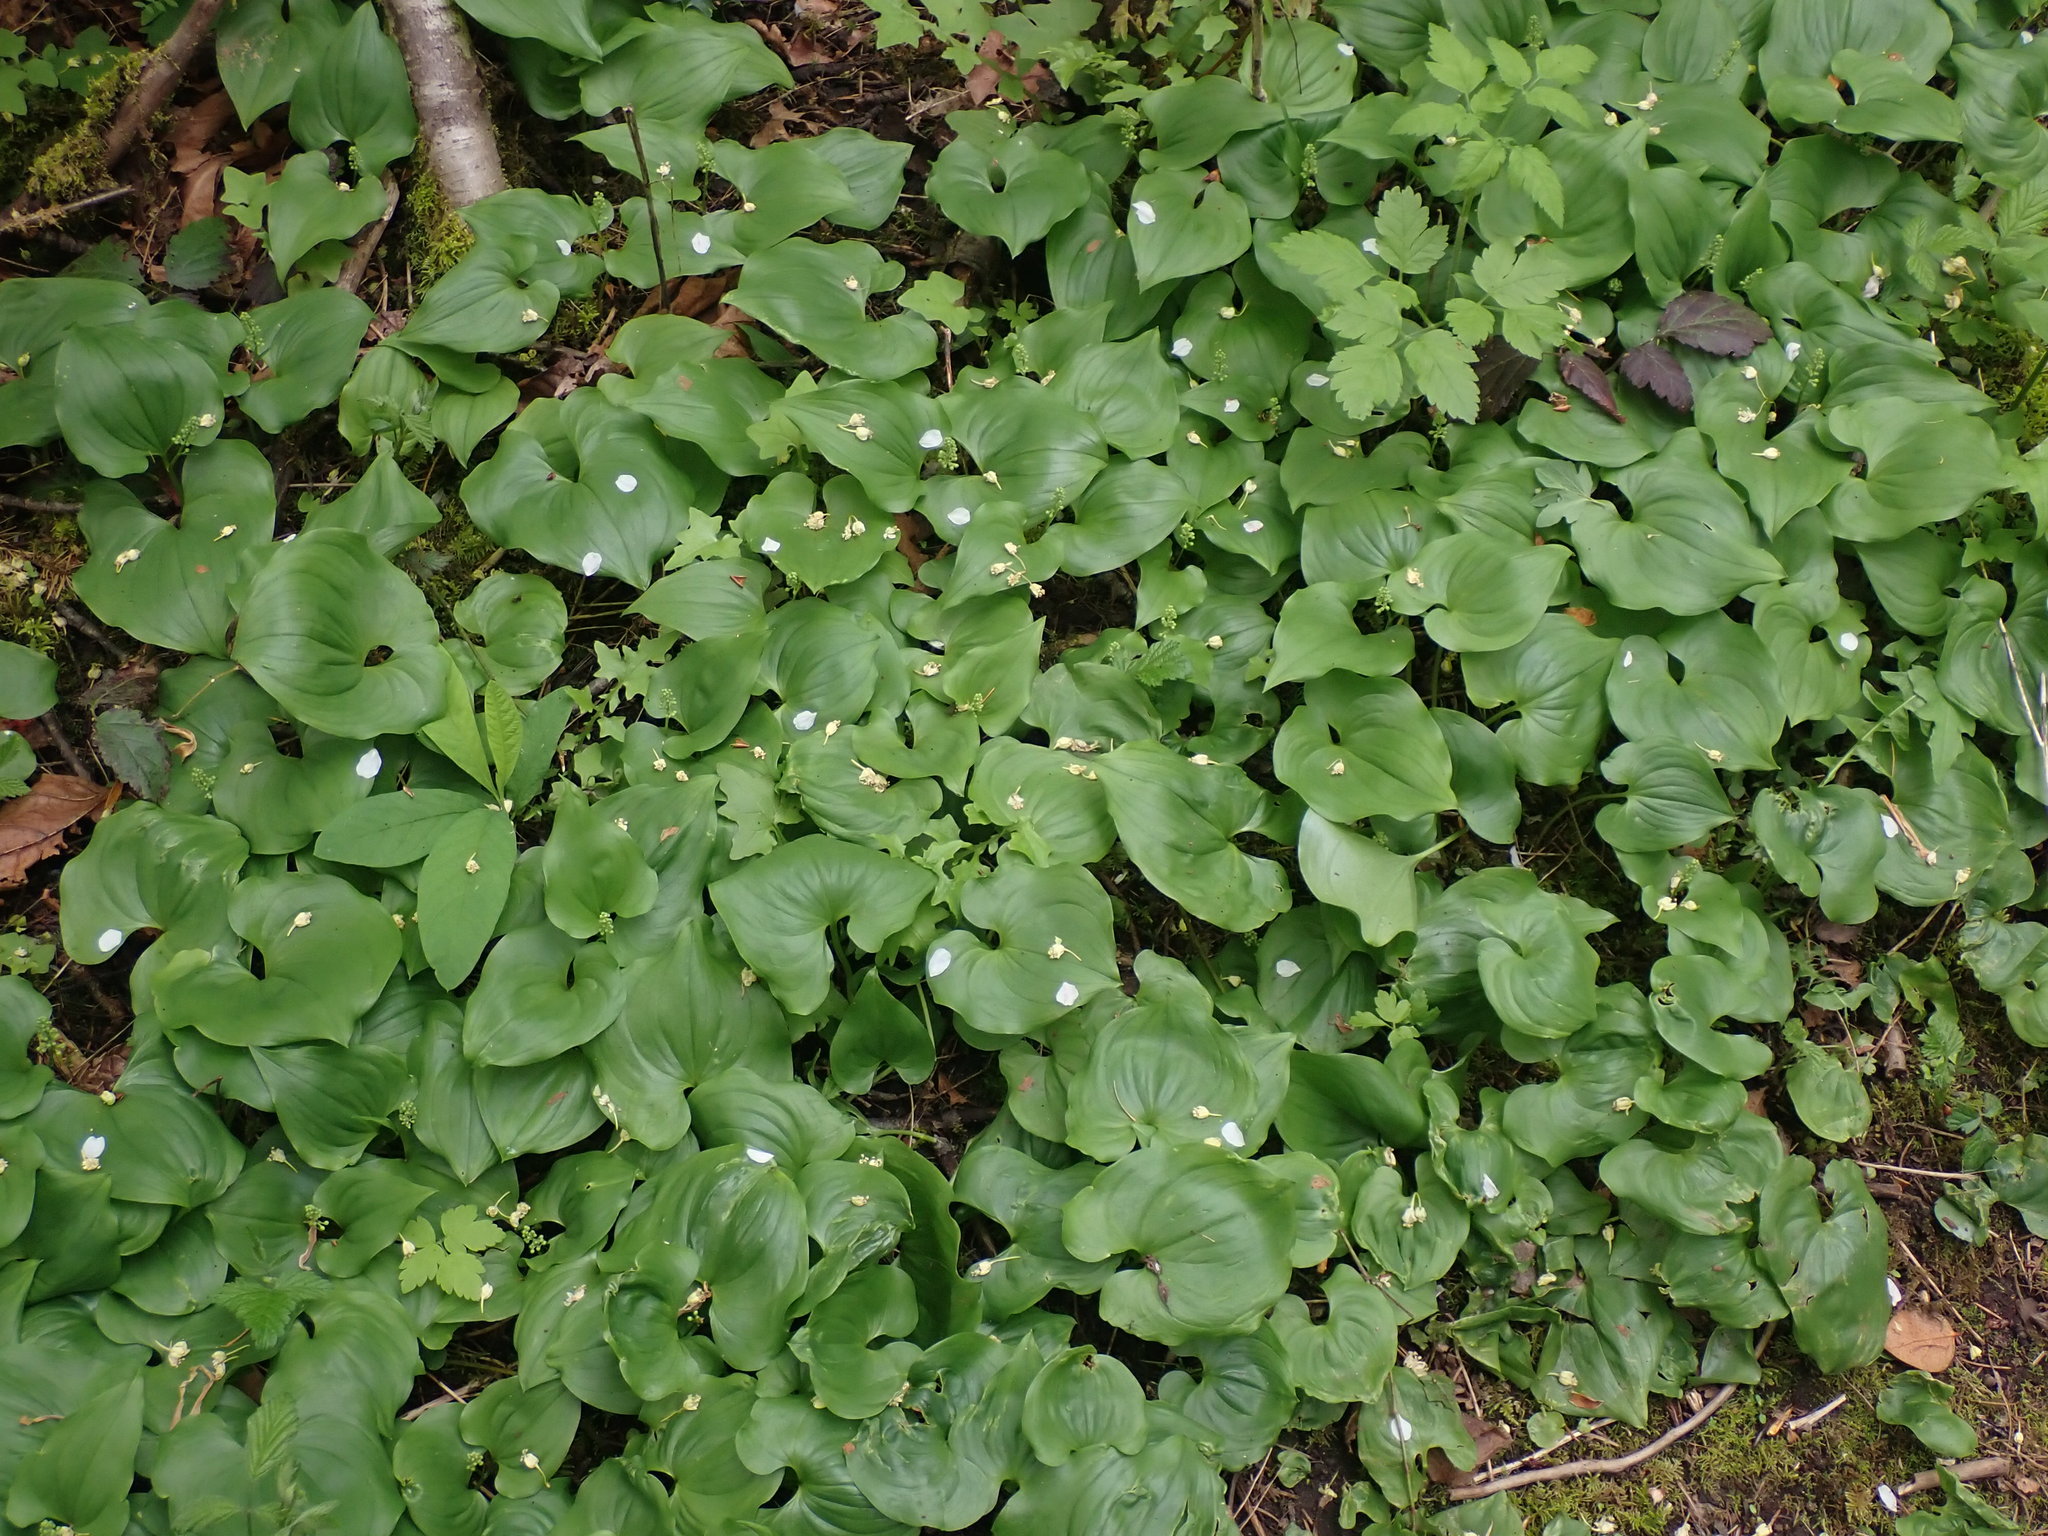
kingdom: Plantae
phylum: Tracheophyta
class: Liliopsida
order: Asparagales
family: Asparagaceae
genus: Maianthemum
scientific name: Maianthemum dilatatum
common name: False lily-of-the-valley
